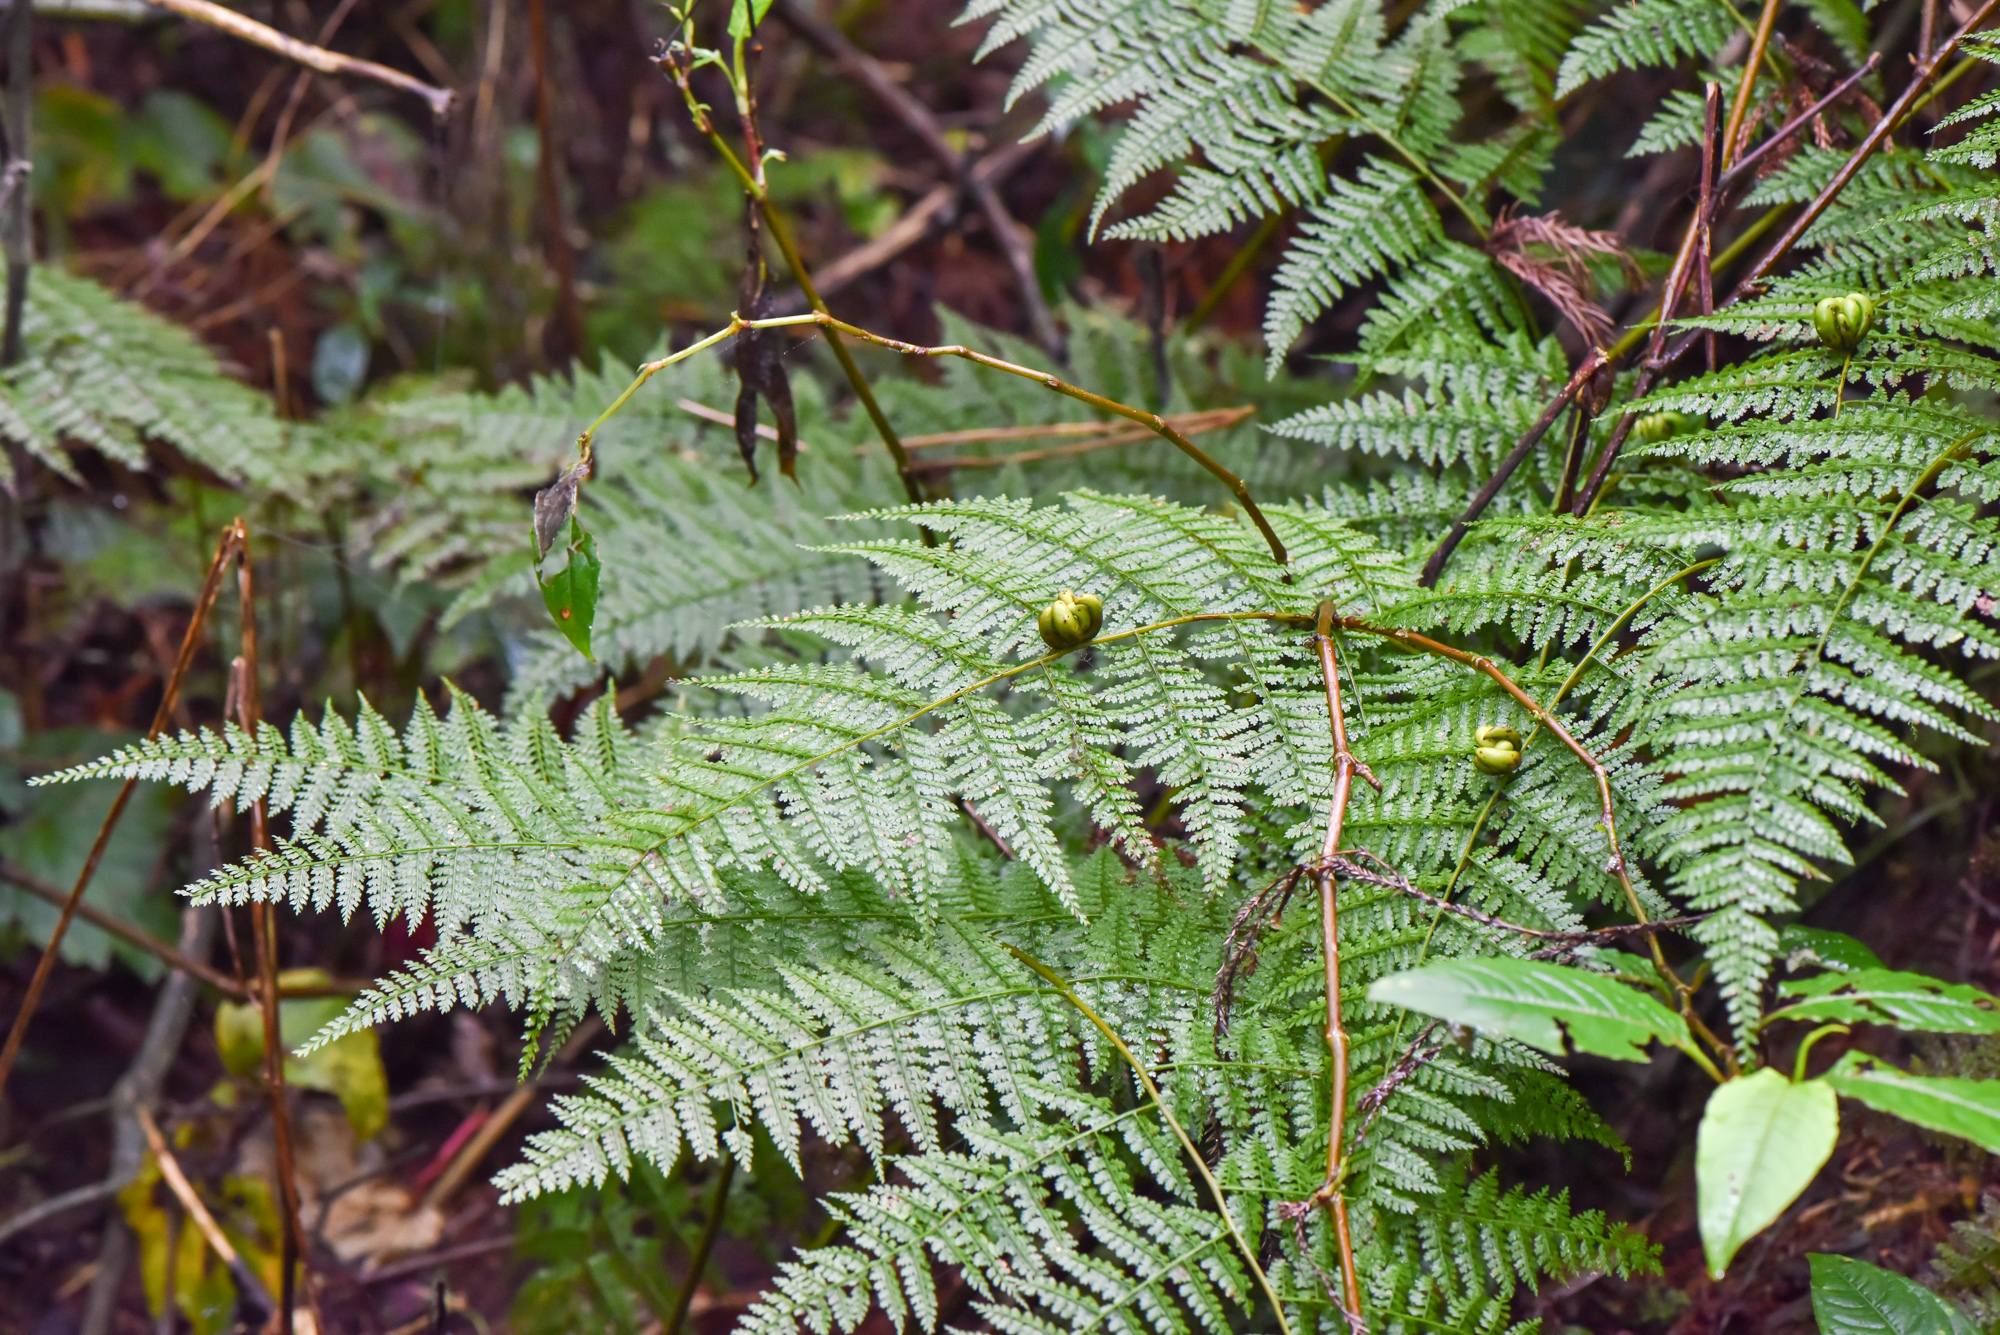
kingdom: Plantae
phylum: Tracheophyta
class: Polypodiopsida
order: Polypodiales
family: Dennstaedtiaceae
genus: Monachosorum
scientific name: Monachosorum henryi
